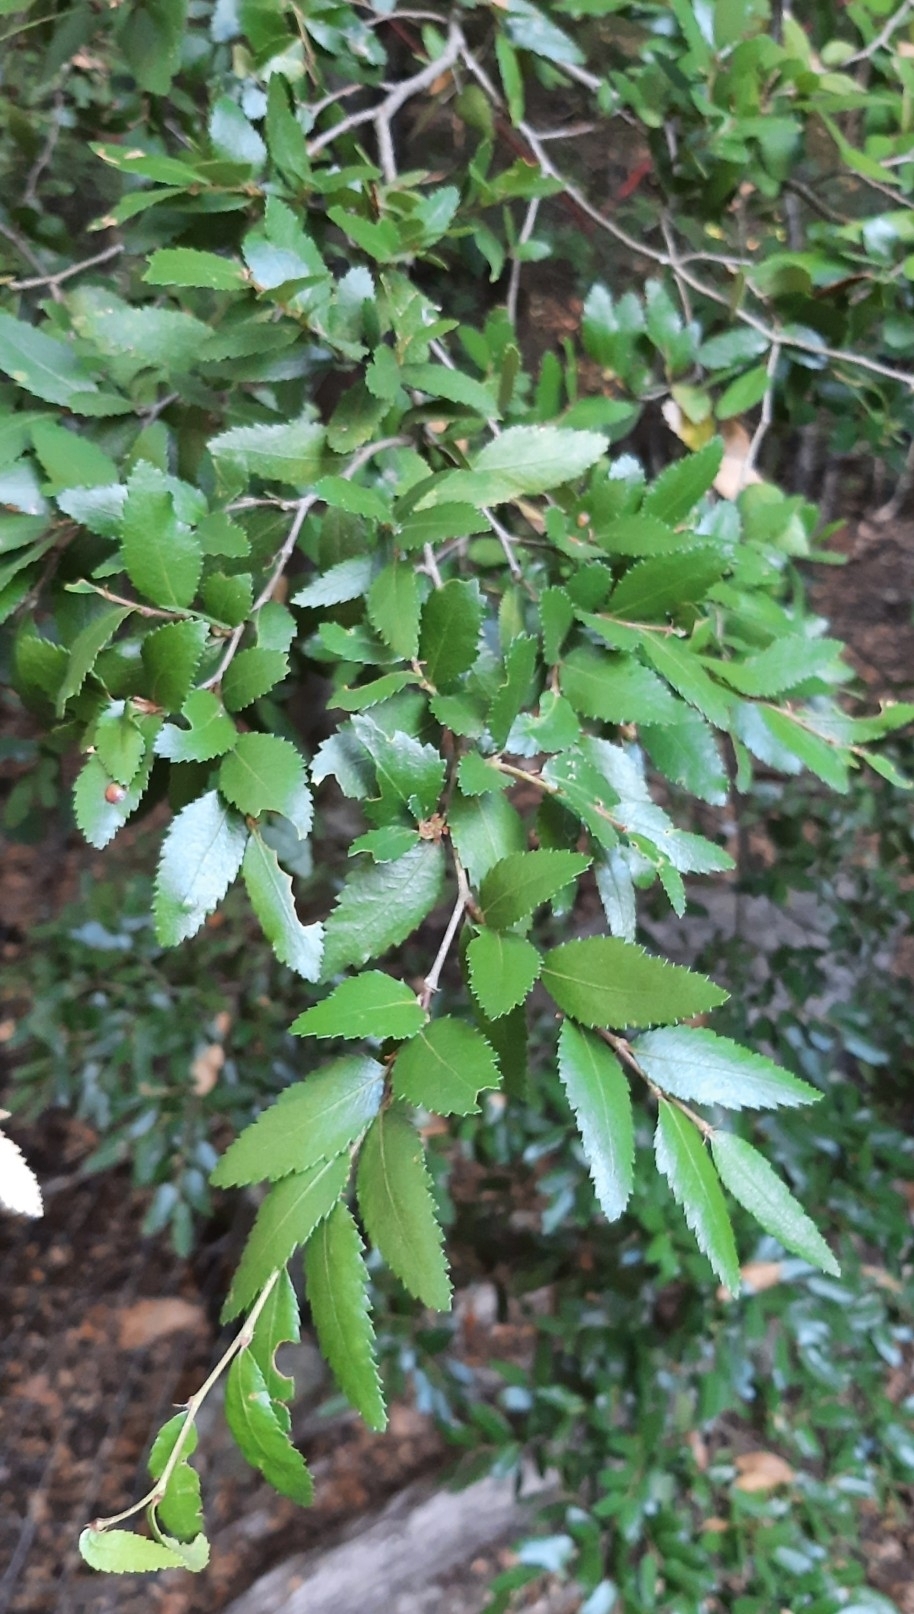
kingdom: Plantae
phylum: Tracheophyta
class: Magnoliopsida
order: Fagales
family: Nothofagaceae
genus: Nothofagus
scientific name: Nothofagus dombeyi
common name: Coigue
